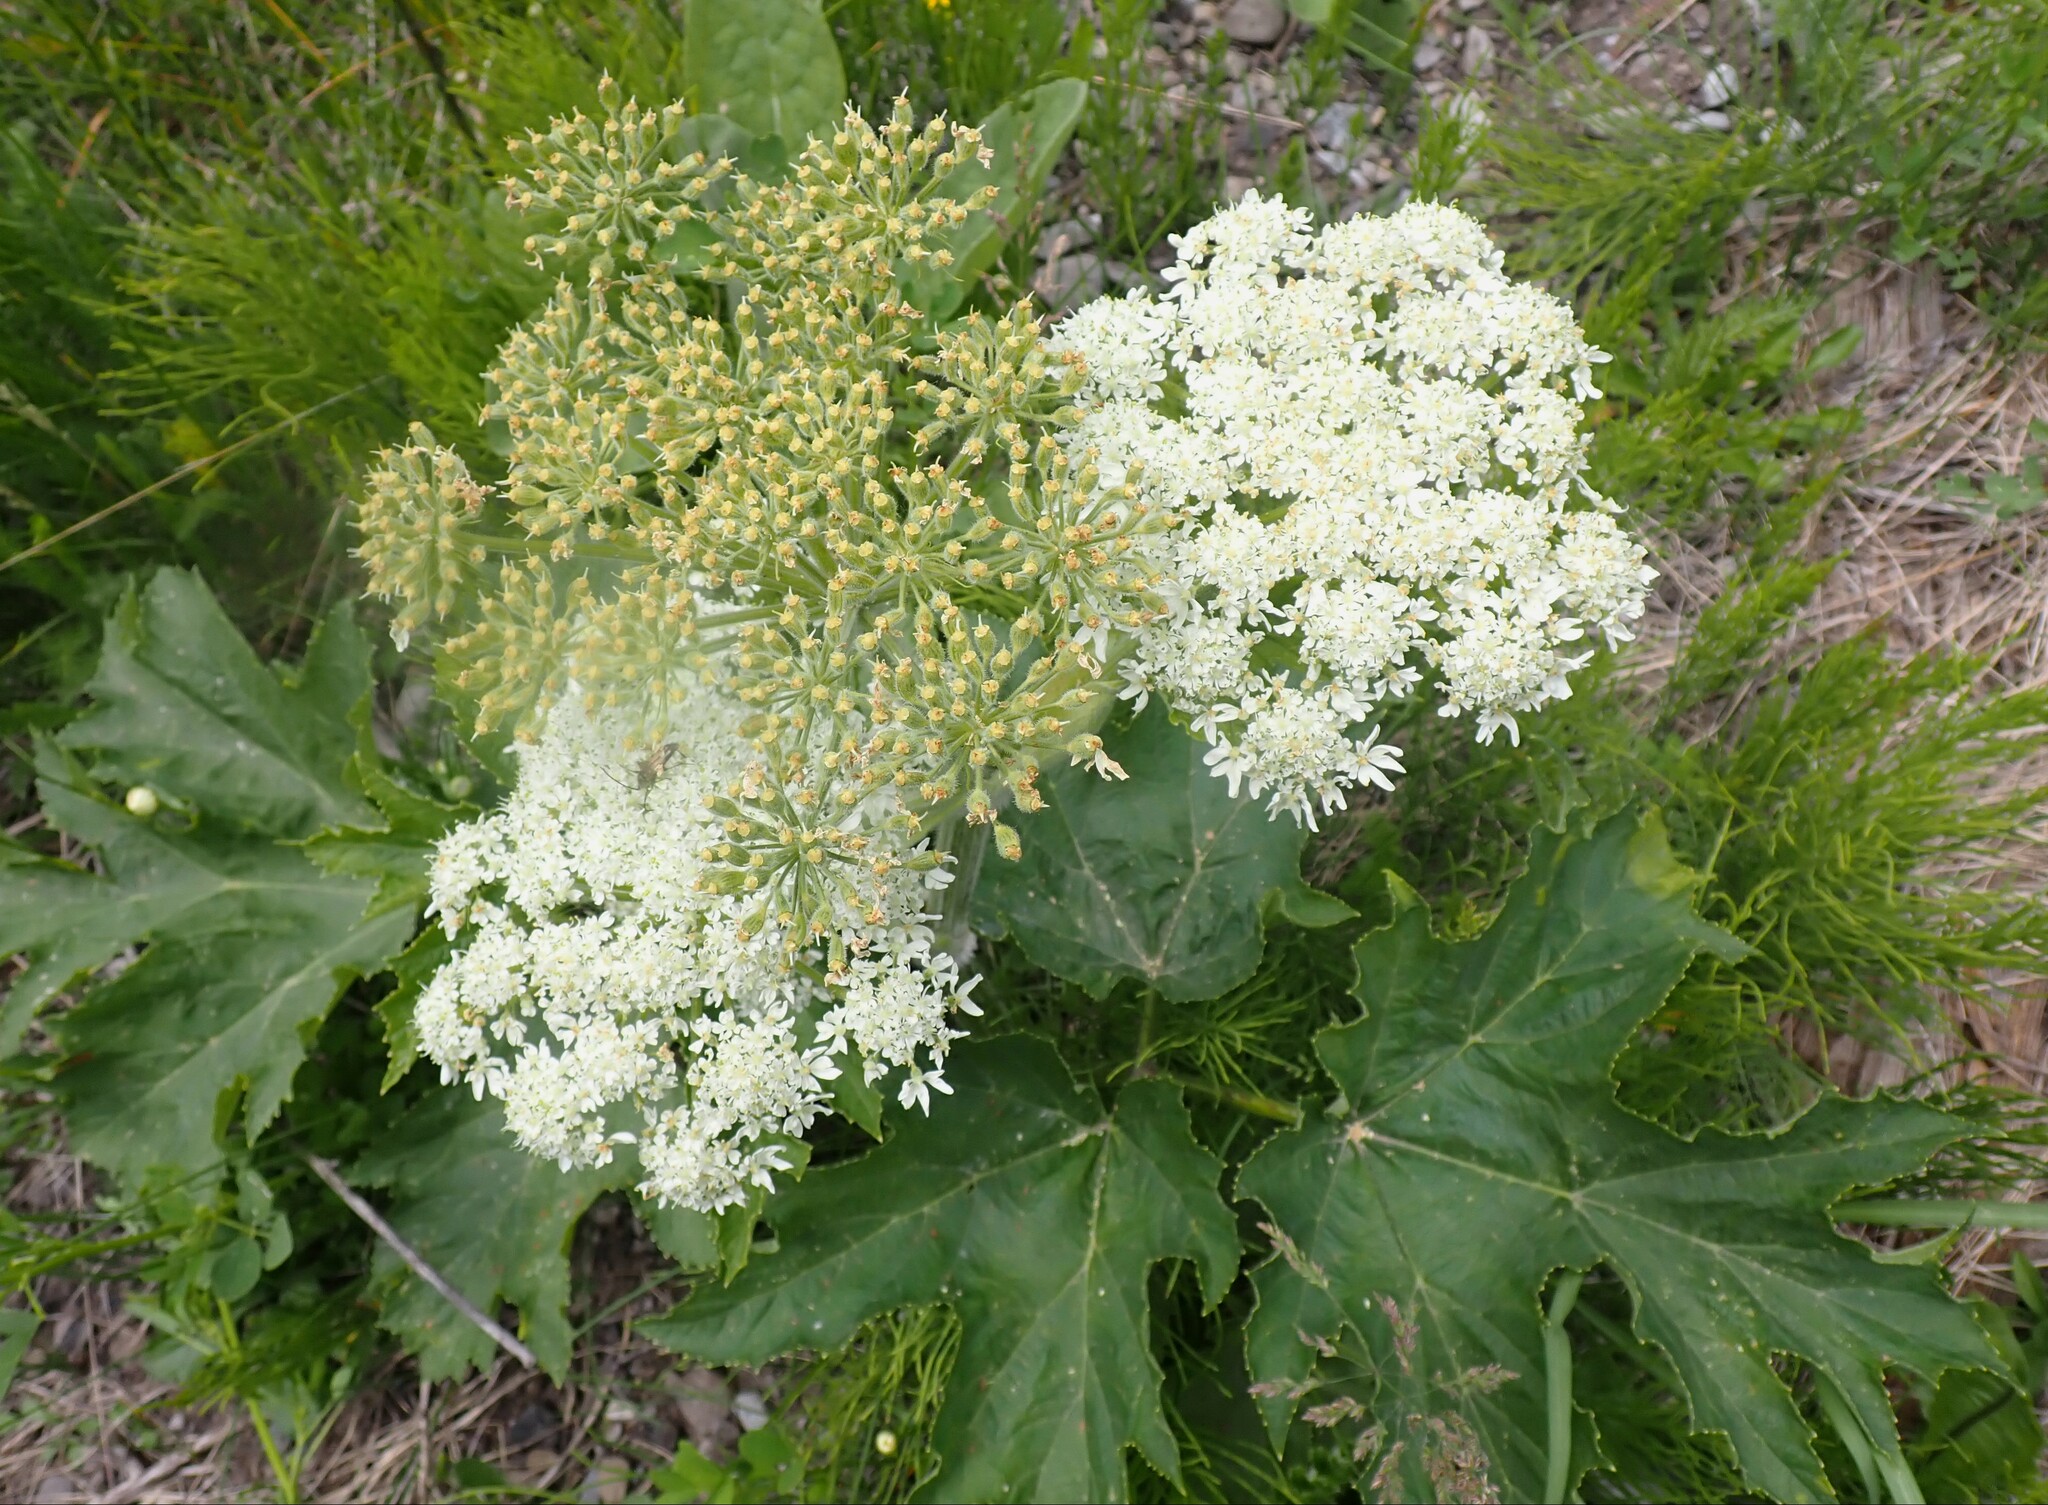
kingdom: Plantae
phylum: Tracheophyta
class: Magnoliopsida
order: Apiales
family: Apiaceae
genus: Heracleum
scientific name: Heracleum maximum
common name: American cow parsnip
